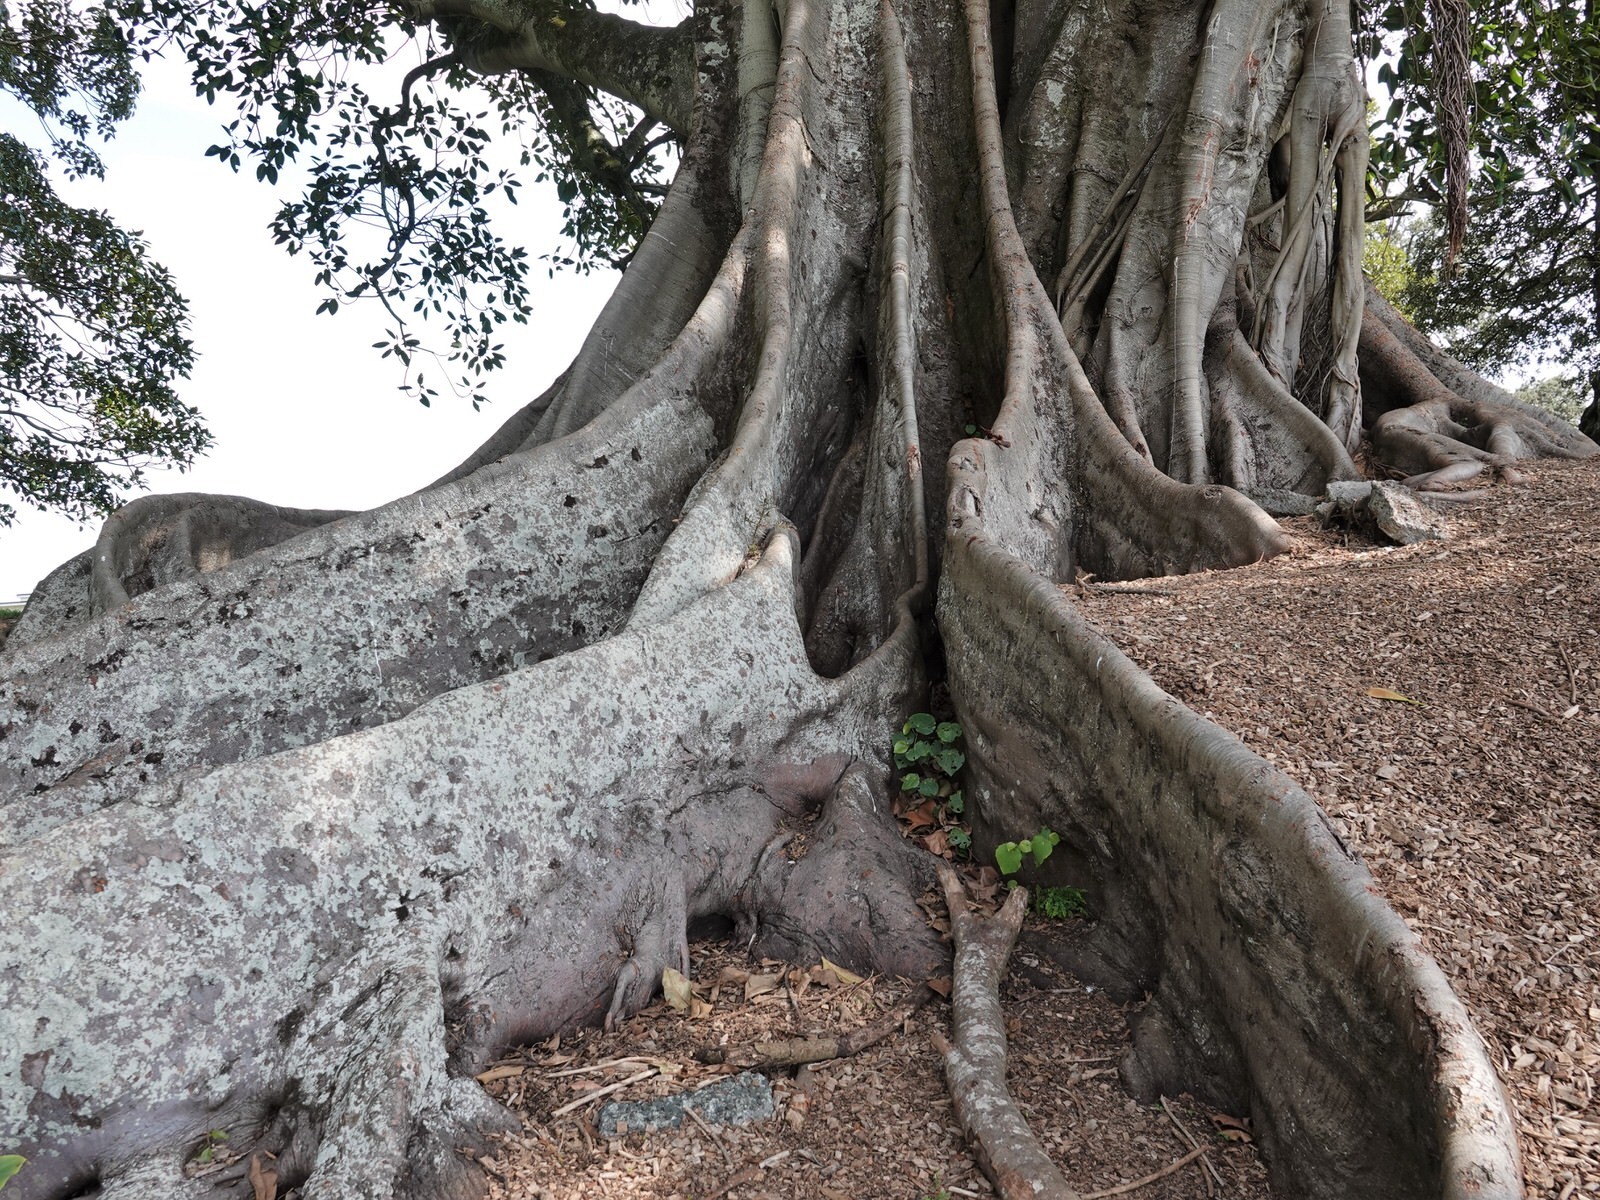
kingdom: Plantae
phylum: Tracheophyta
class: Liliopsida
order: Asparagales
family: Asparagaceae
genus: Asparagus
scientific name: Asparagus scandens
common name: Asparagus-fern
